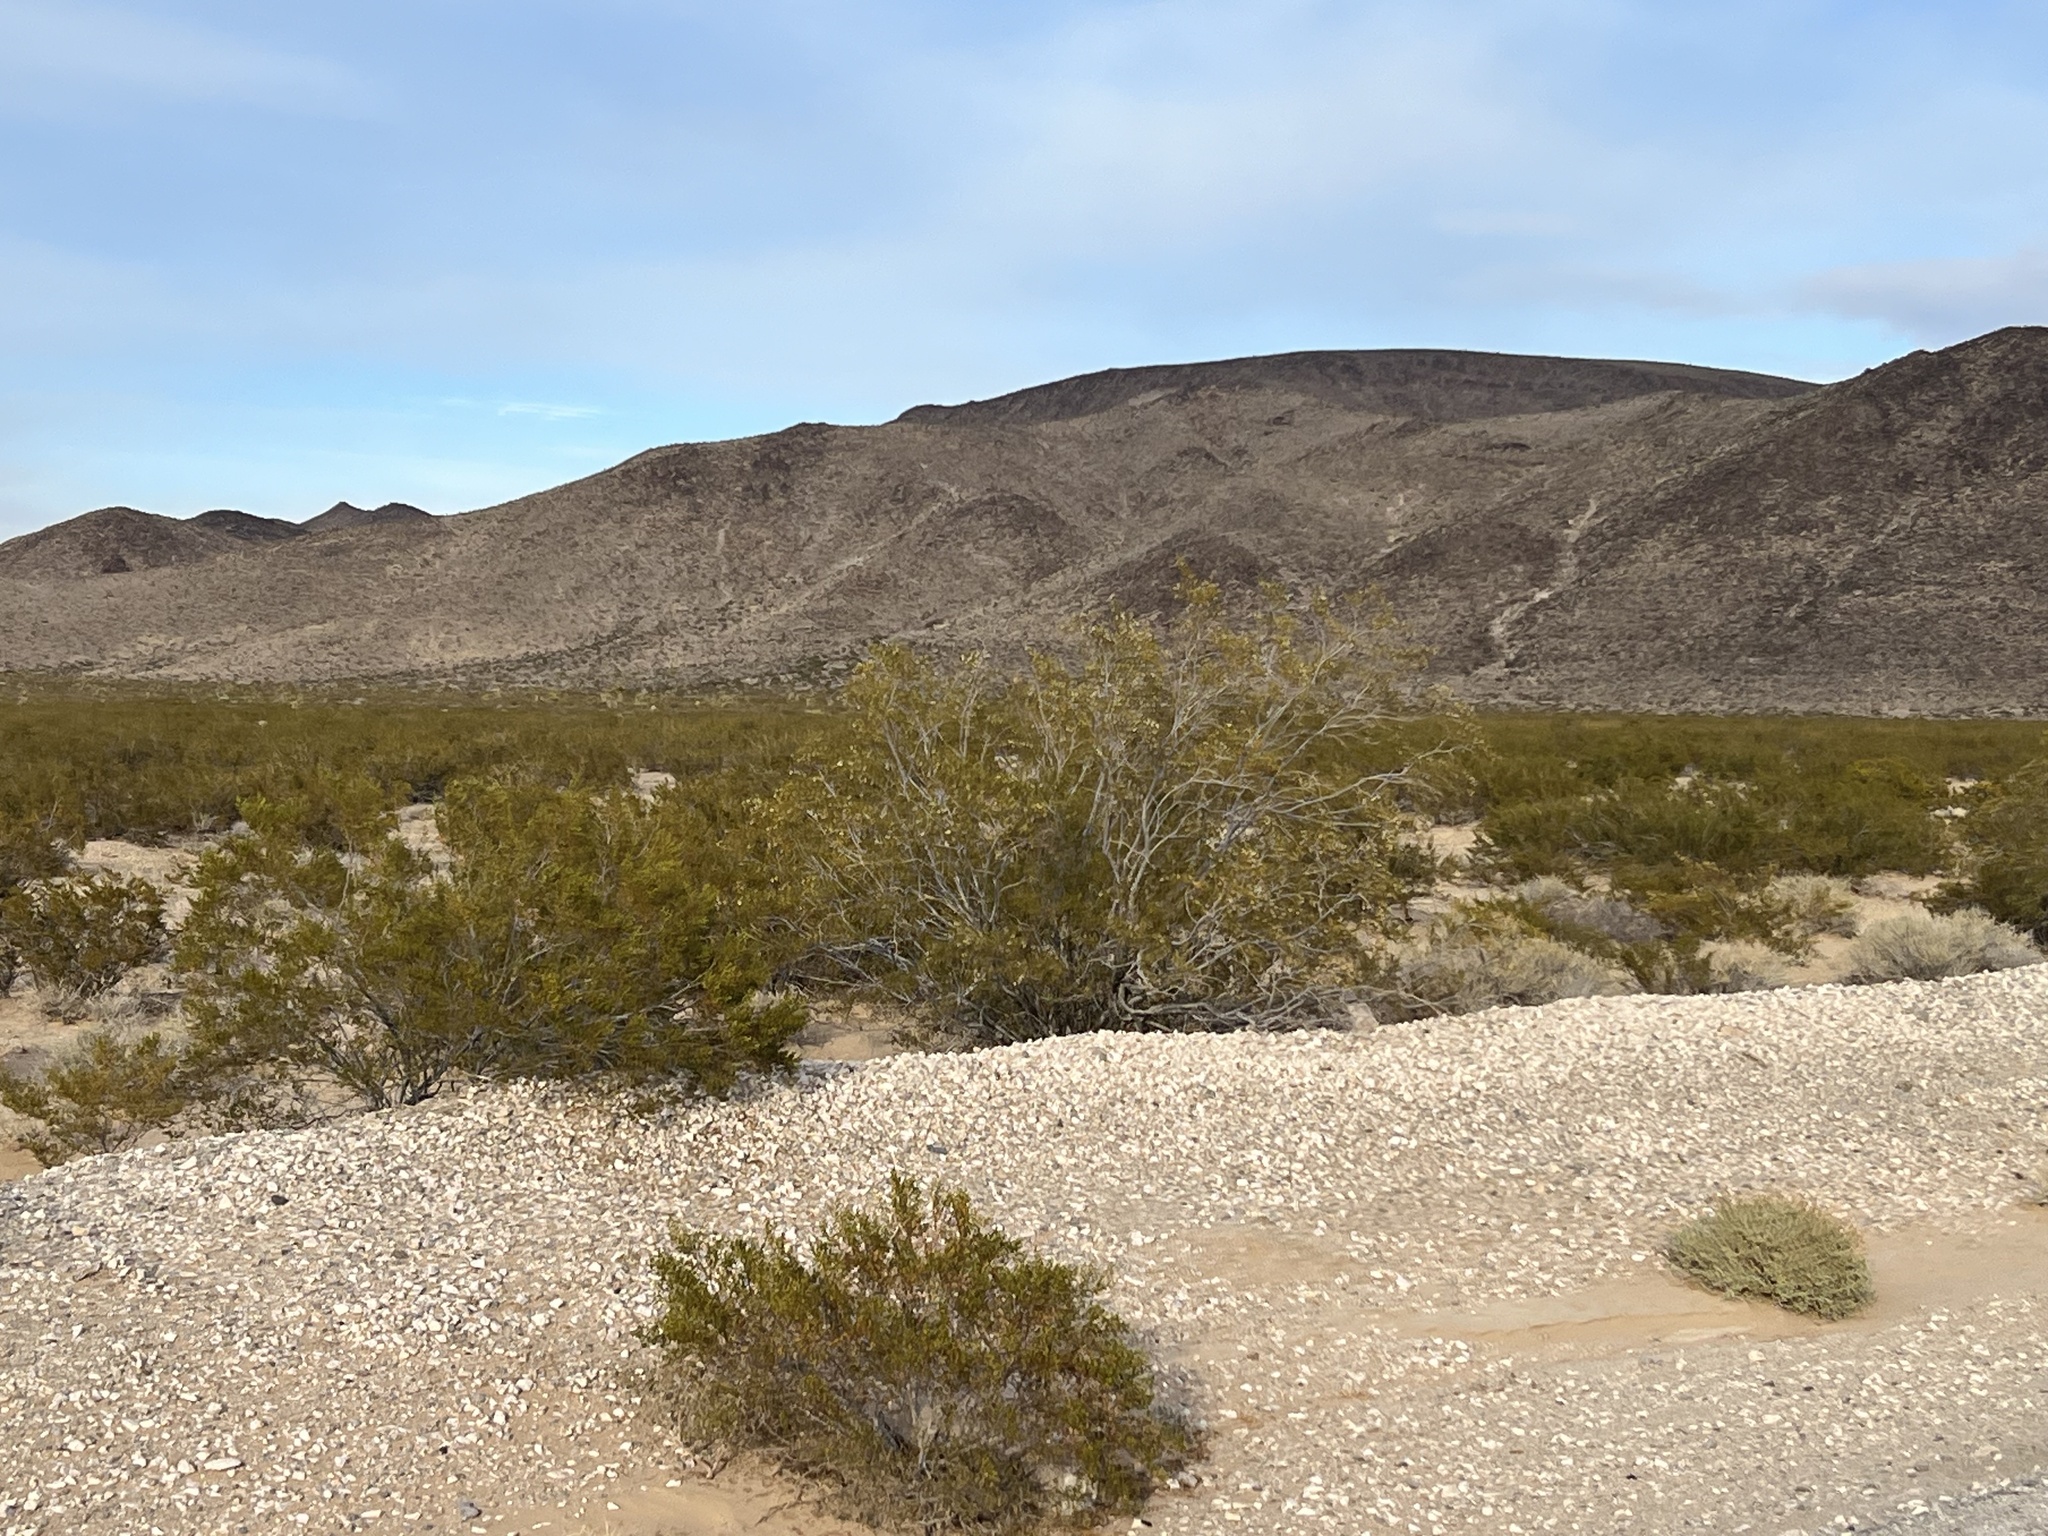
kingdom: Plantae
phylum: Tracheophyta
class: Magnoliopsida
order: Zygophyllales
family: Zygophyllaceae
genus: Larrea
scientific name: Larrea tridentata
